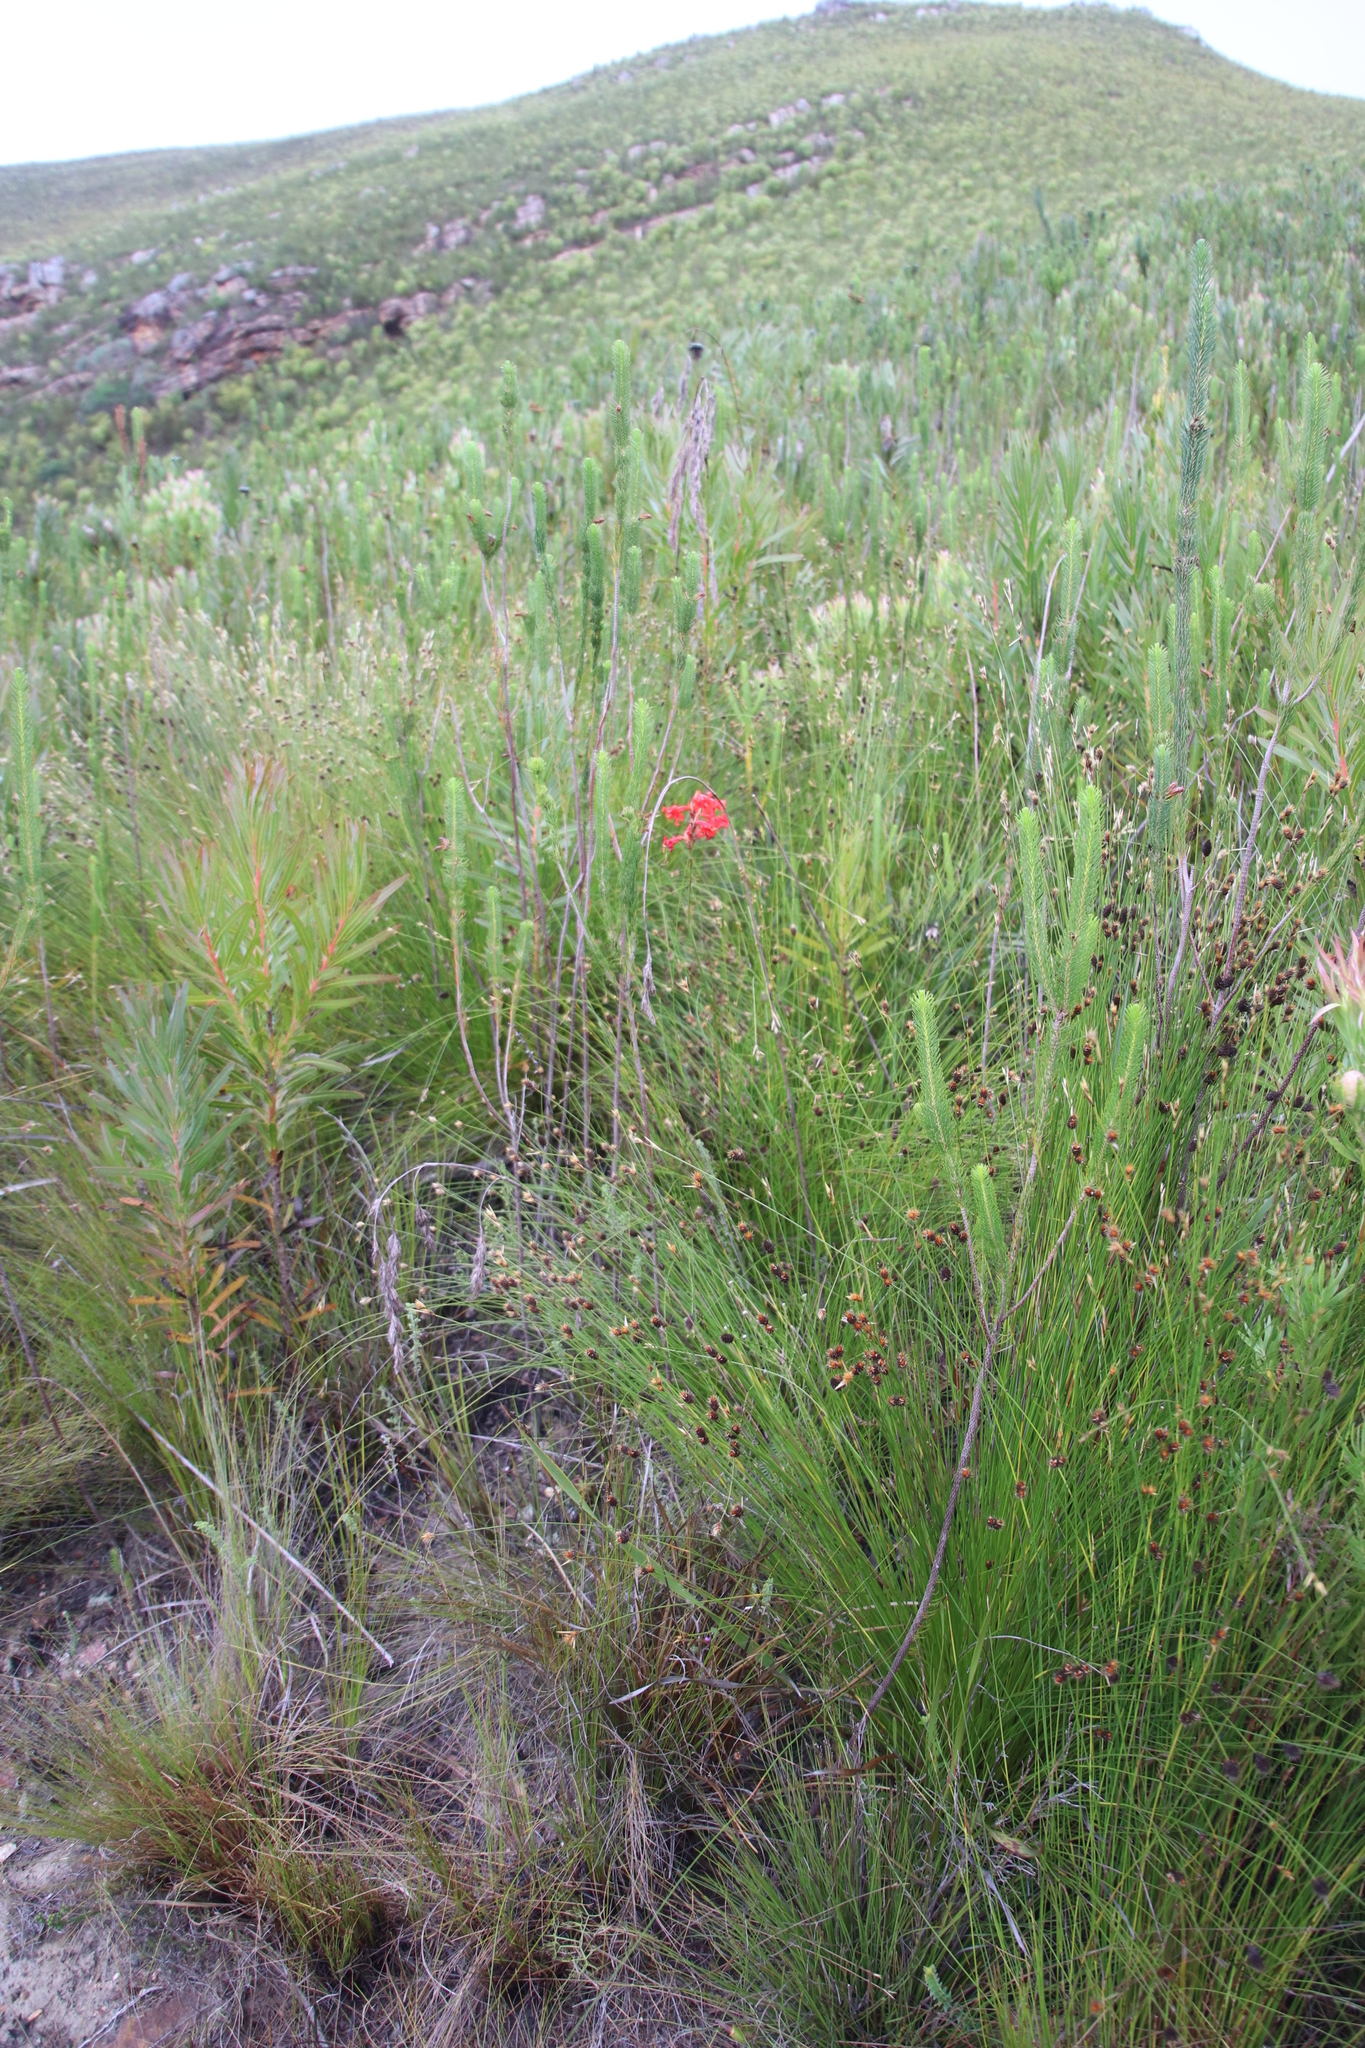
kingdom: Plantae
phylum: Tracheophyta
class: Liliopsida
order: Asparagales
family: Iridaceae
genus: Tritoniopsis
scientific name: Tritoniopsis triticea
